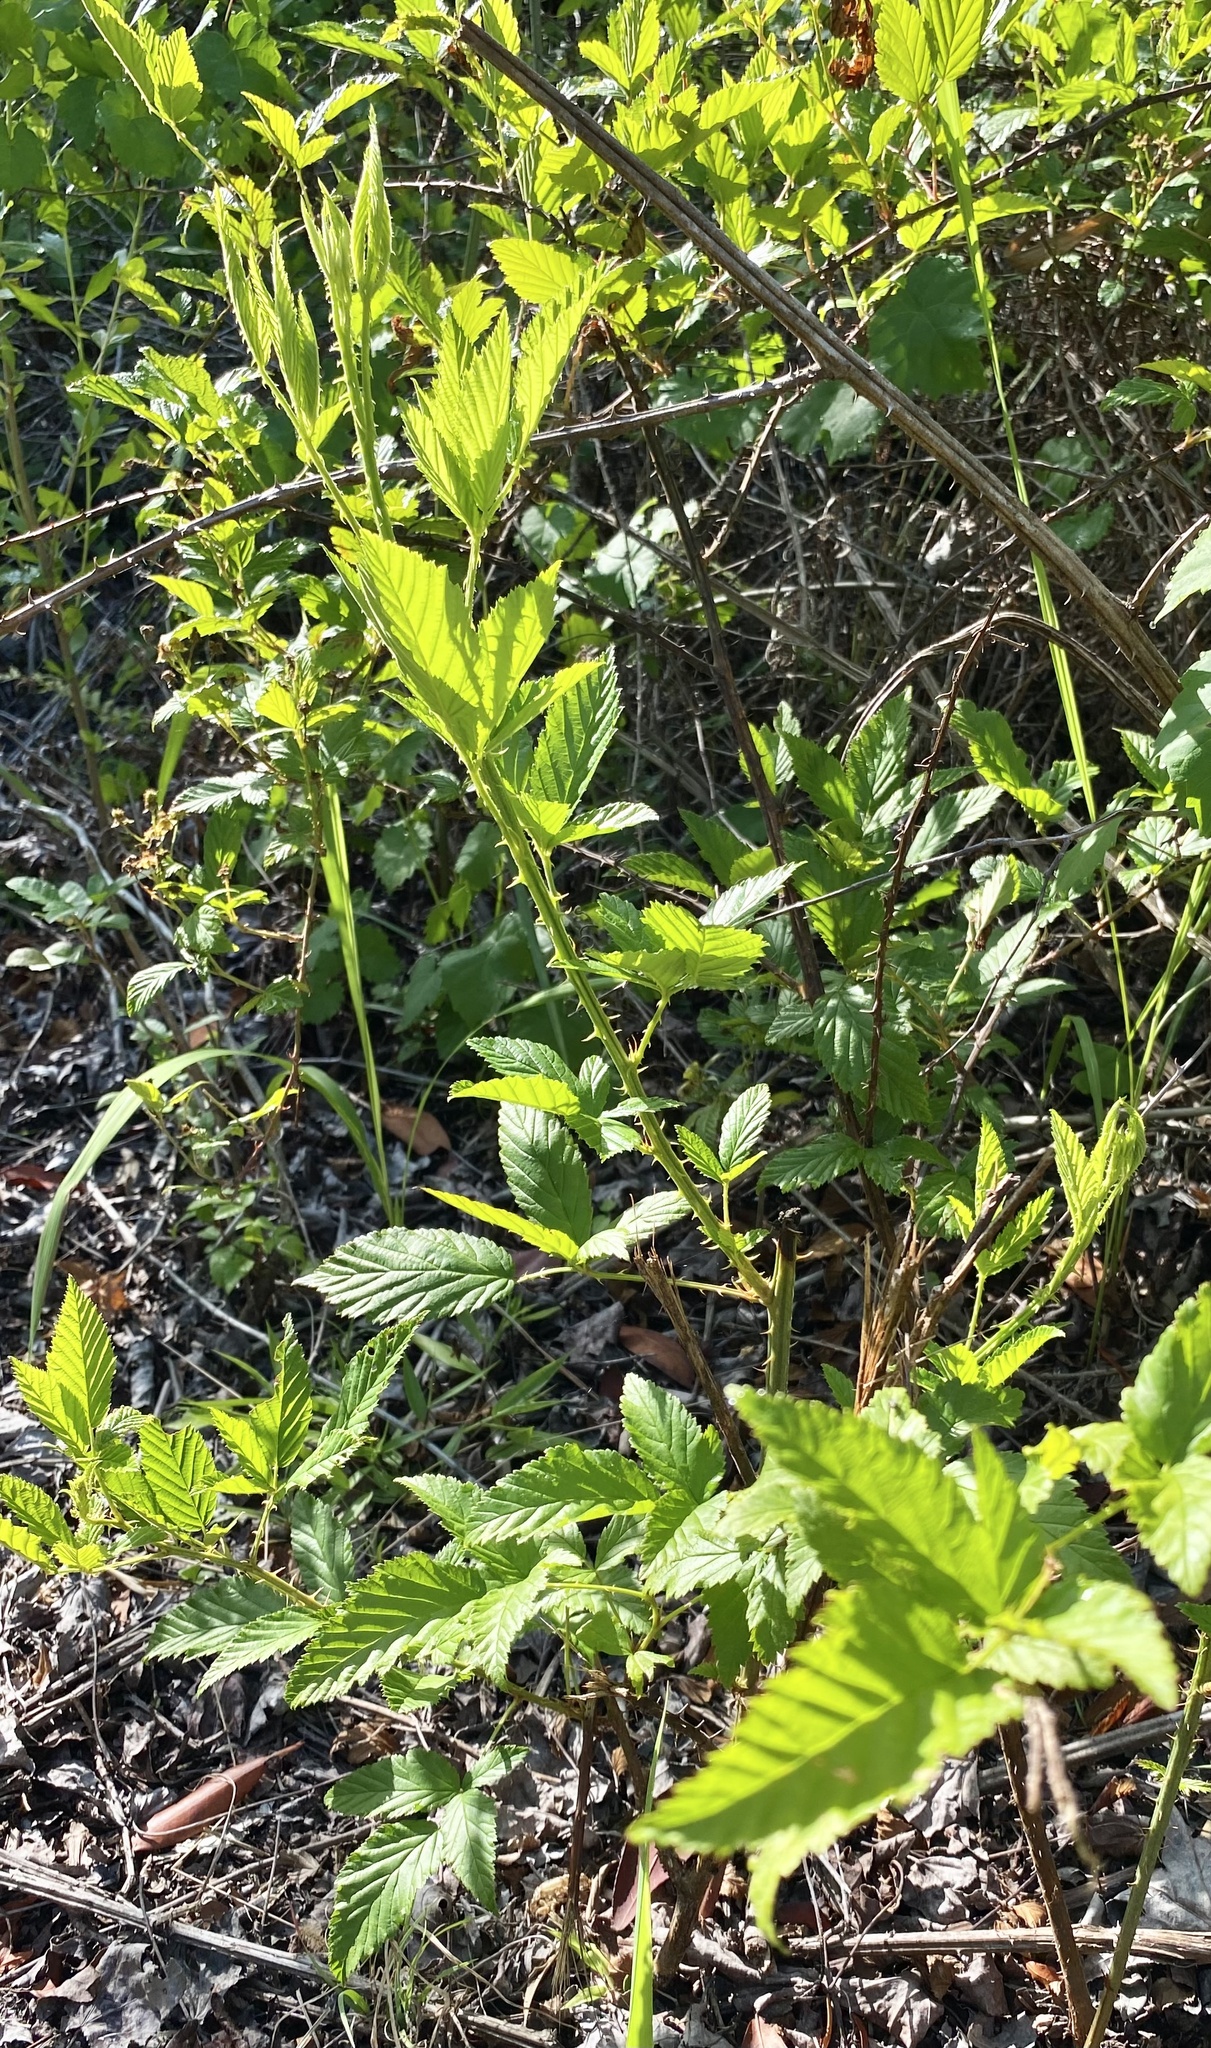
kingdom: Plantae
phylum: Tracheophyta
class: Magnoliopsida
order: Rosales
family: Rosaceae
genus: Rubus
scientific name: Rubus pensilvanicus
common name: Pennsylvania blackberry
